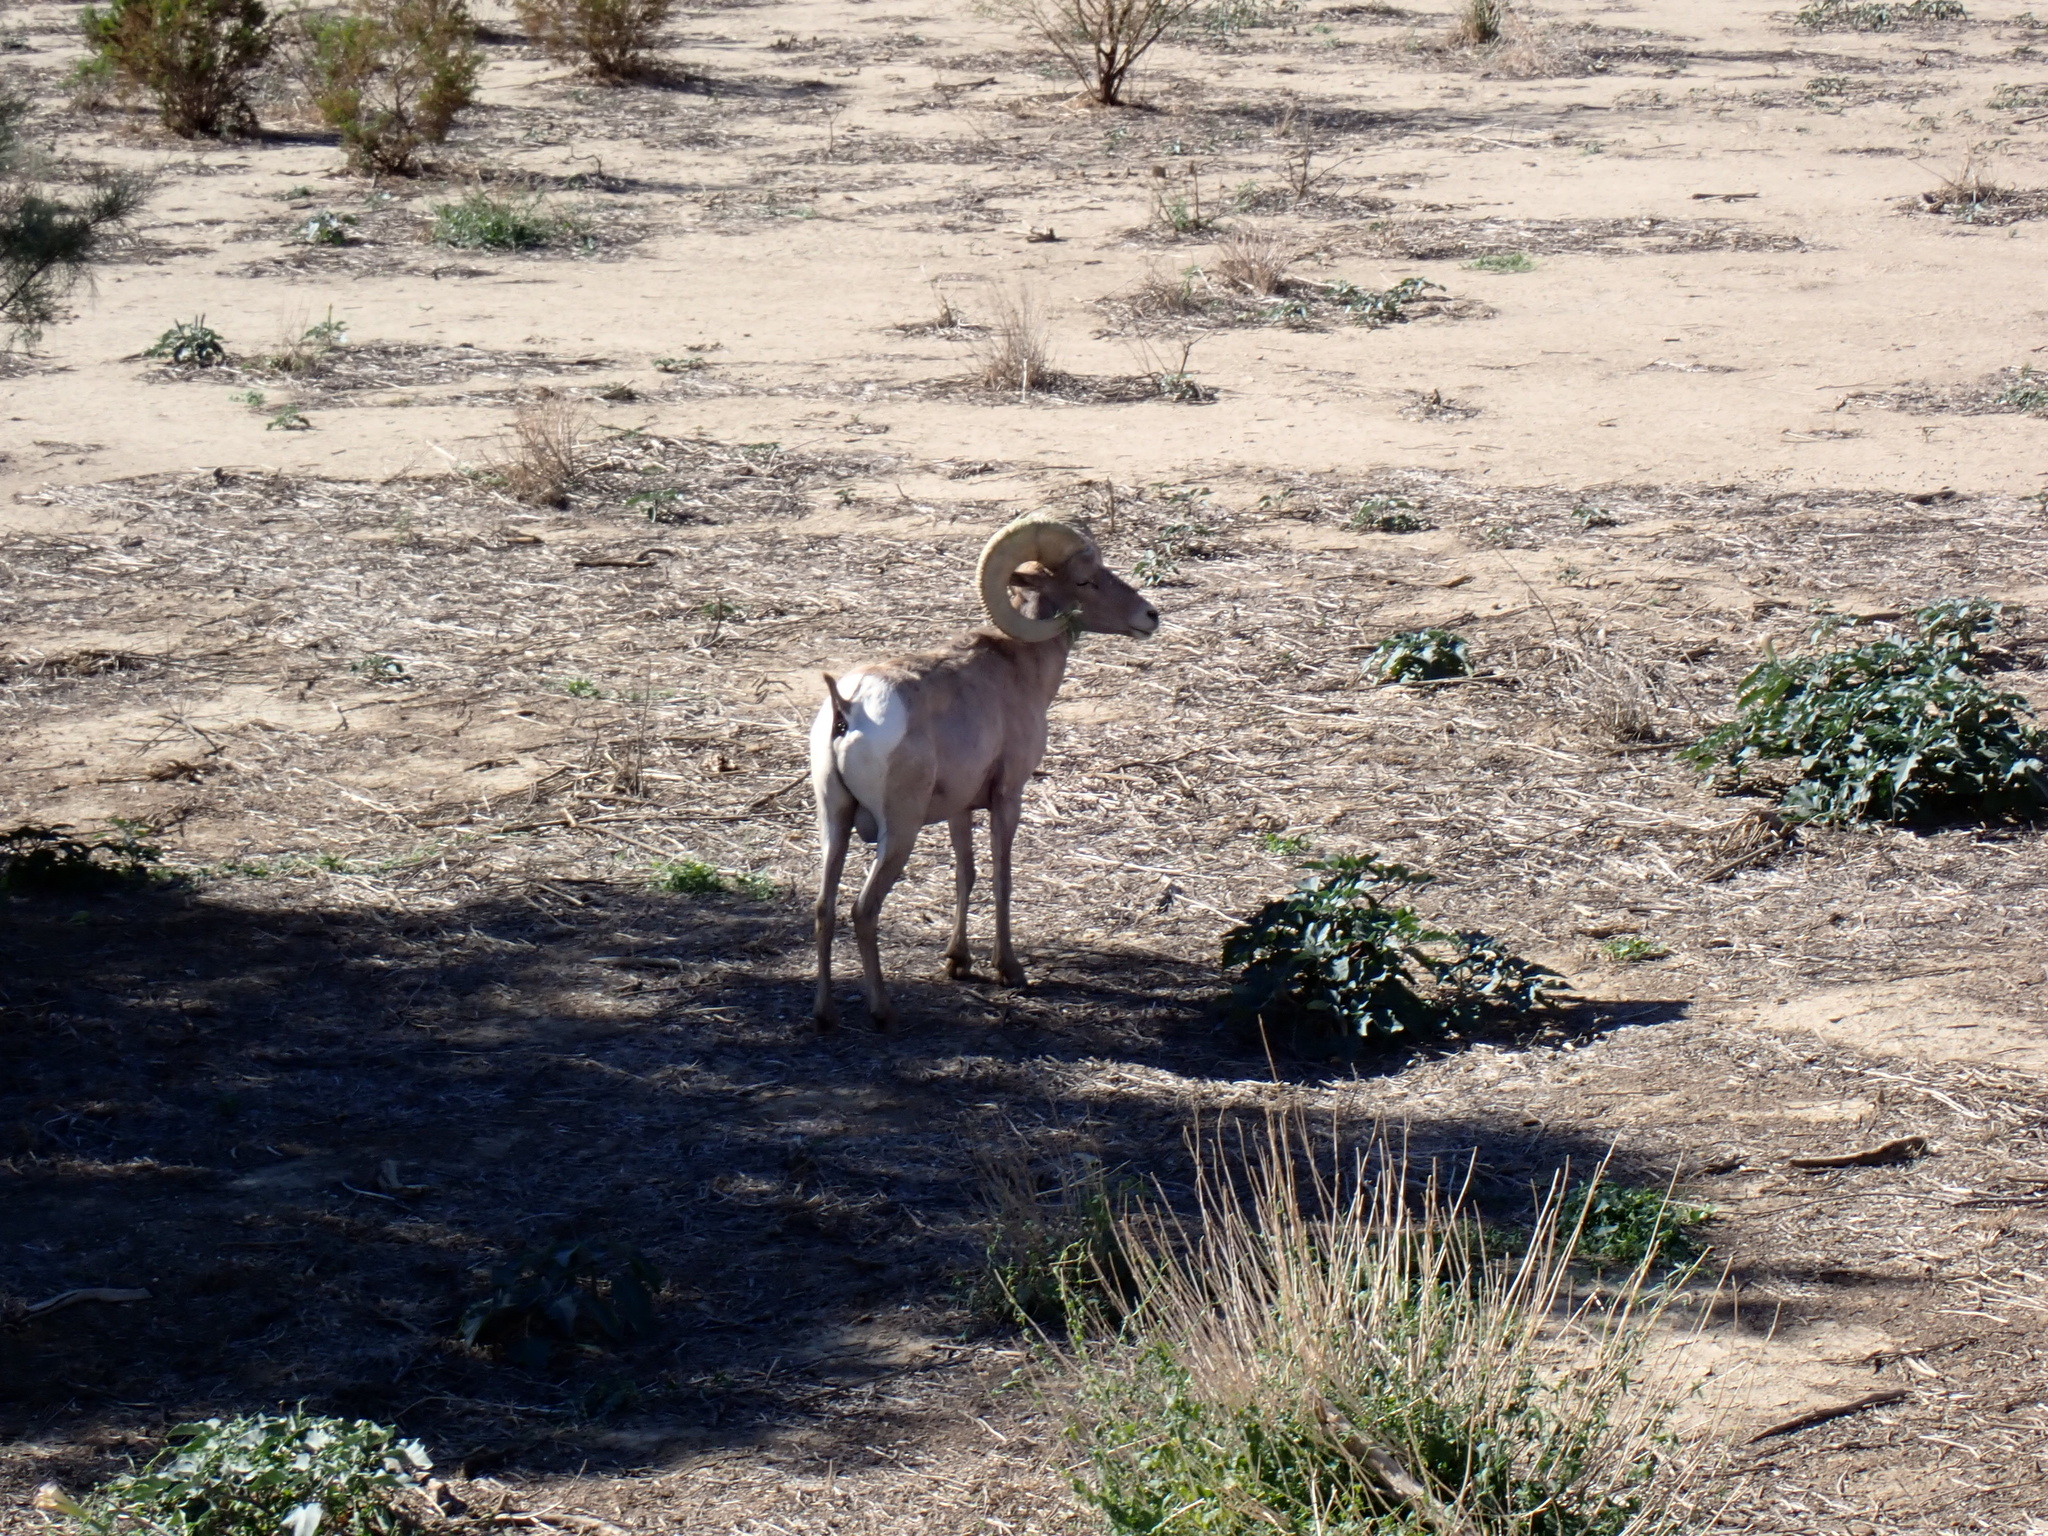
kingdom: Animalia
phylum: Chordata
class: Mammalia
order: Artiodactyla
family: Bovidae
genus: Ovis
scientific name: Ovis canadensis
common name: Bighorn sheep
